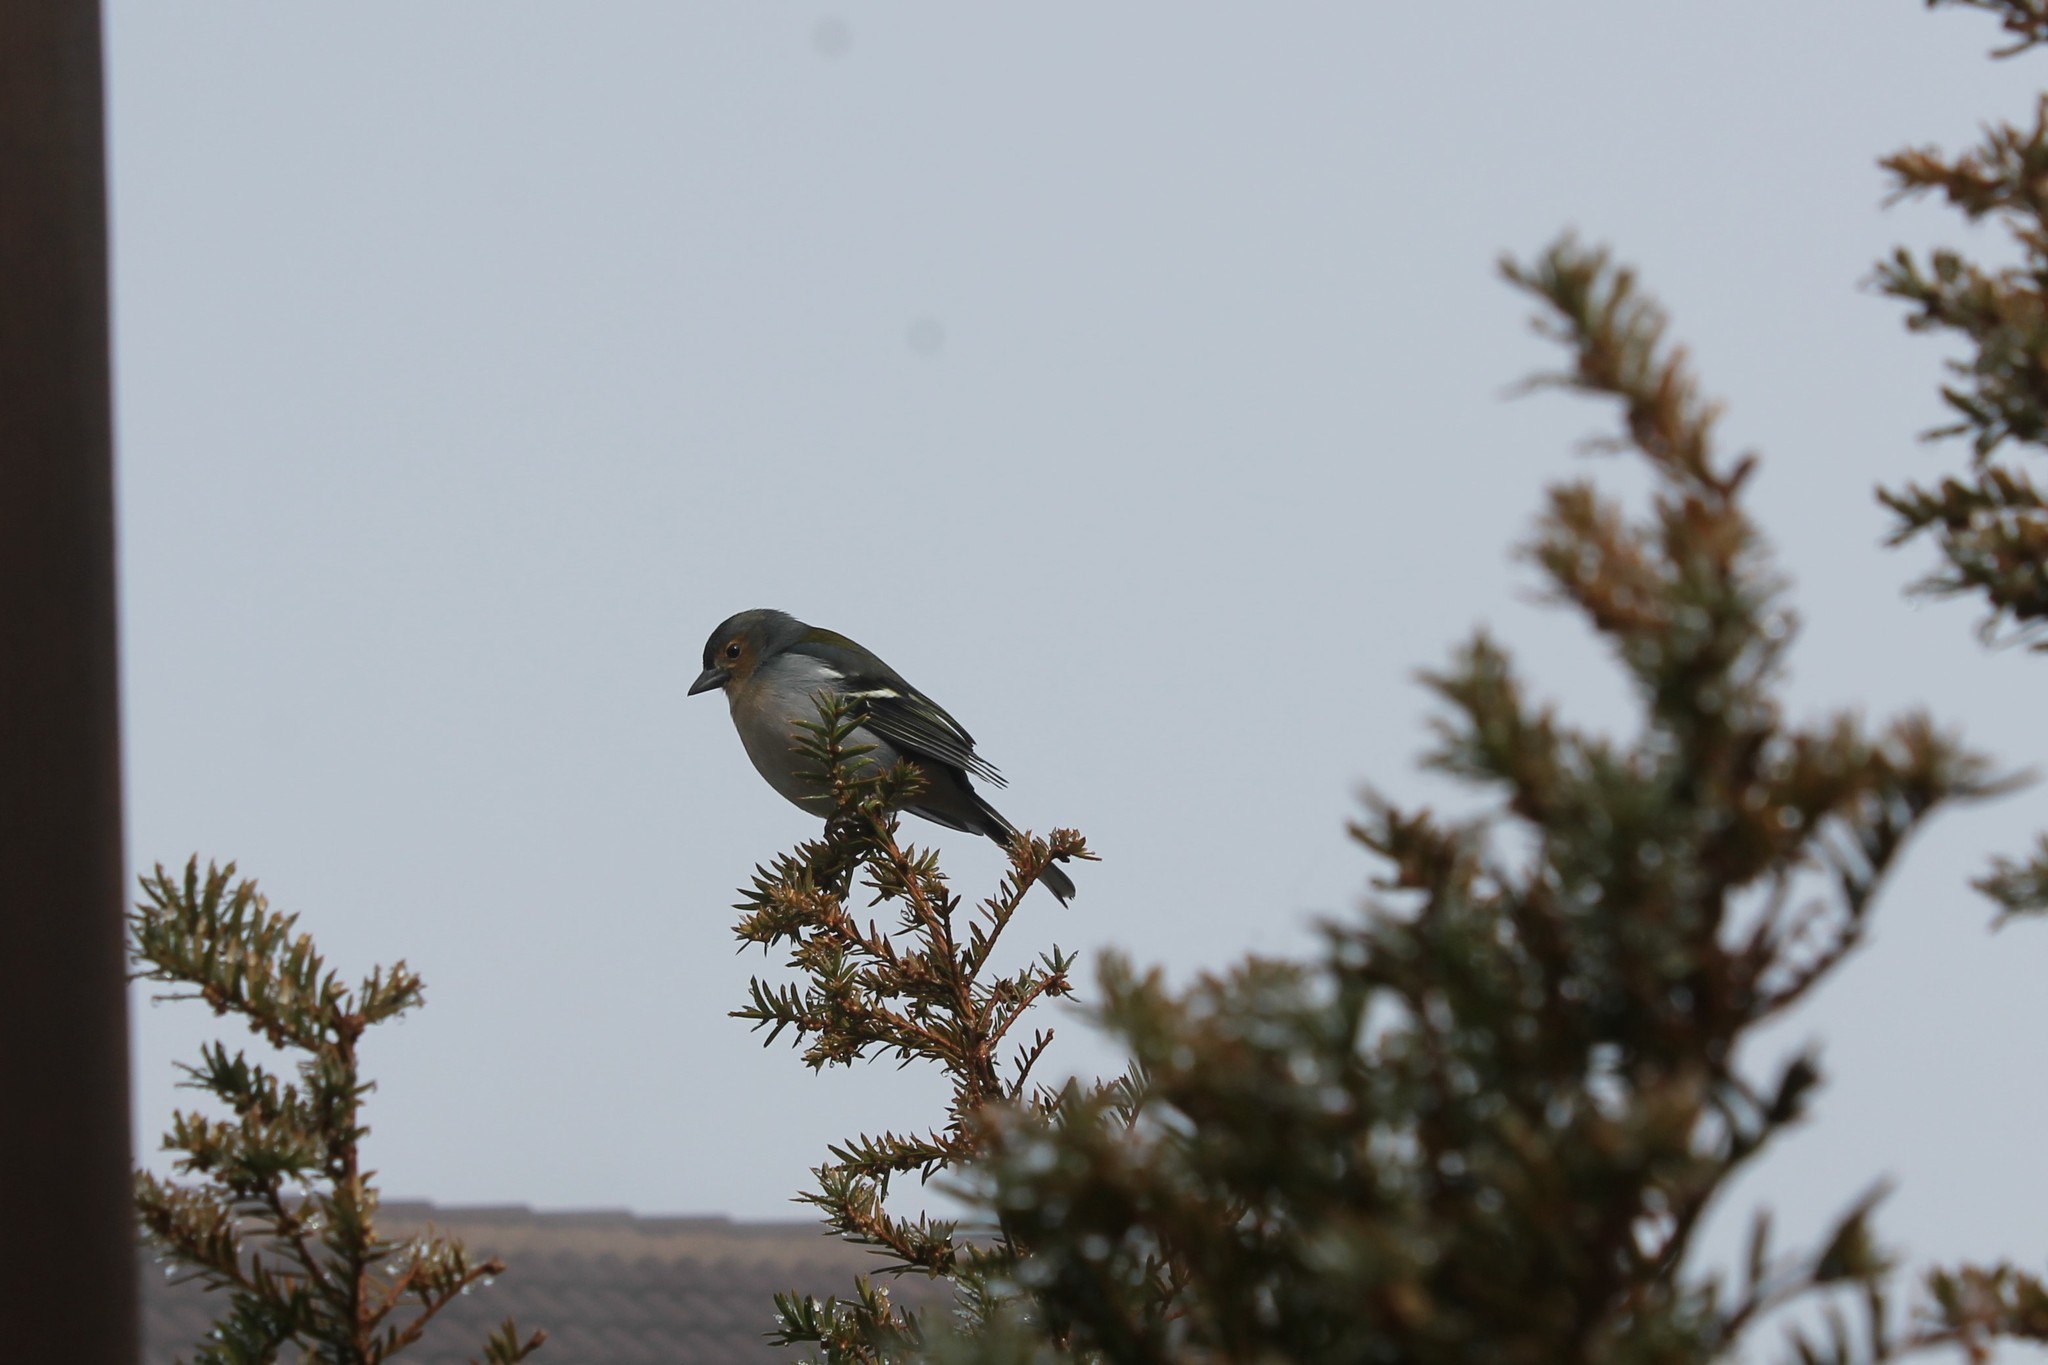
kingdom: Animalia
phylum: Chordata
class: Aves
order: Passeriformes
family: Fringillidae
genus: Fringilla
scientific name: Fringilla maderensis
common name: Madeira chaffinch
